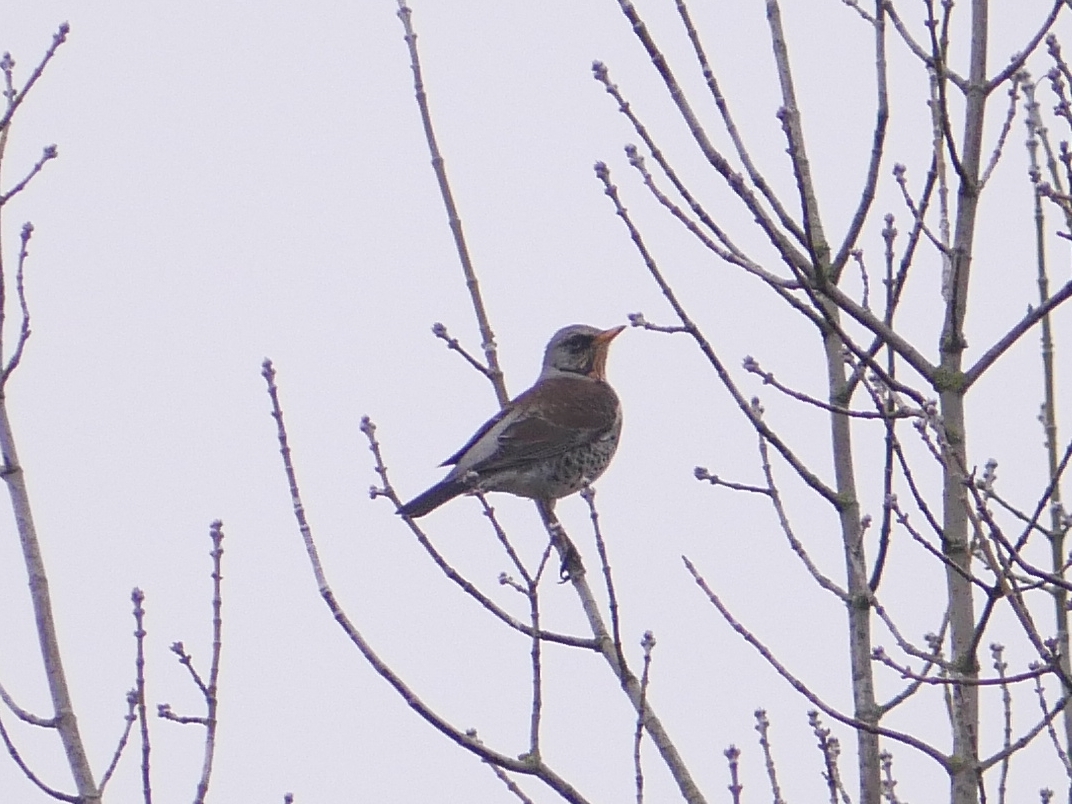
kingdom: Animalia
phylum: Chordata
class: Aves
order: Passeriformes
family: Turdidae
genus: Turdus
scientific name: Turdus pilaris
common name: Fieldfare
